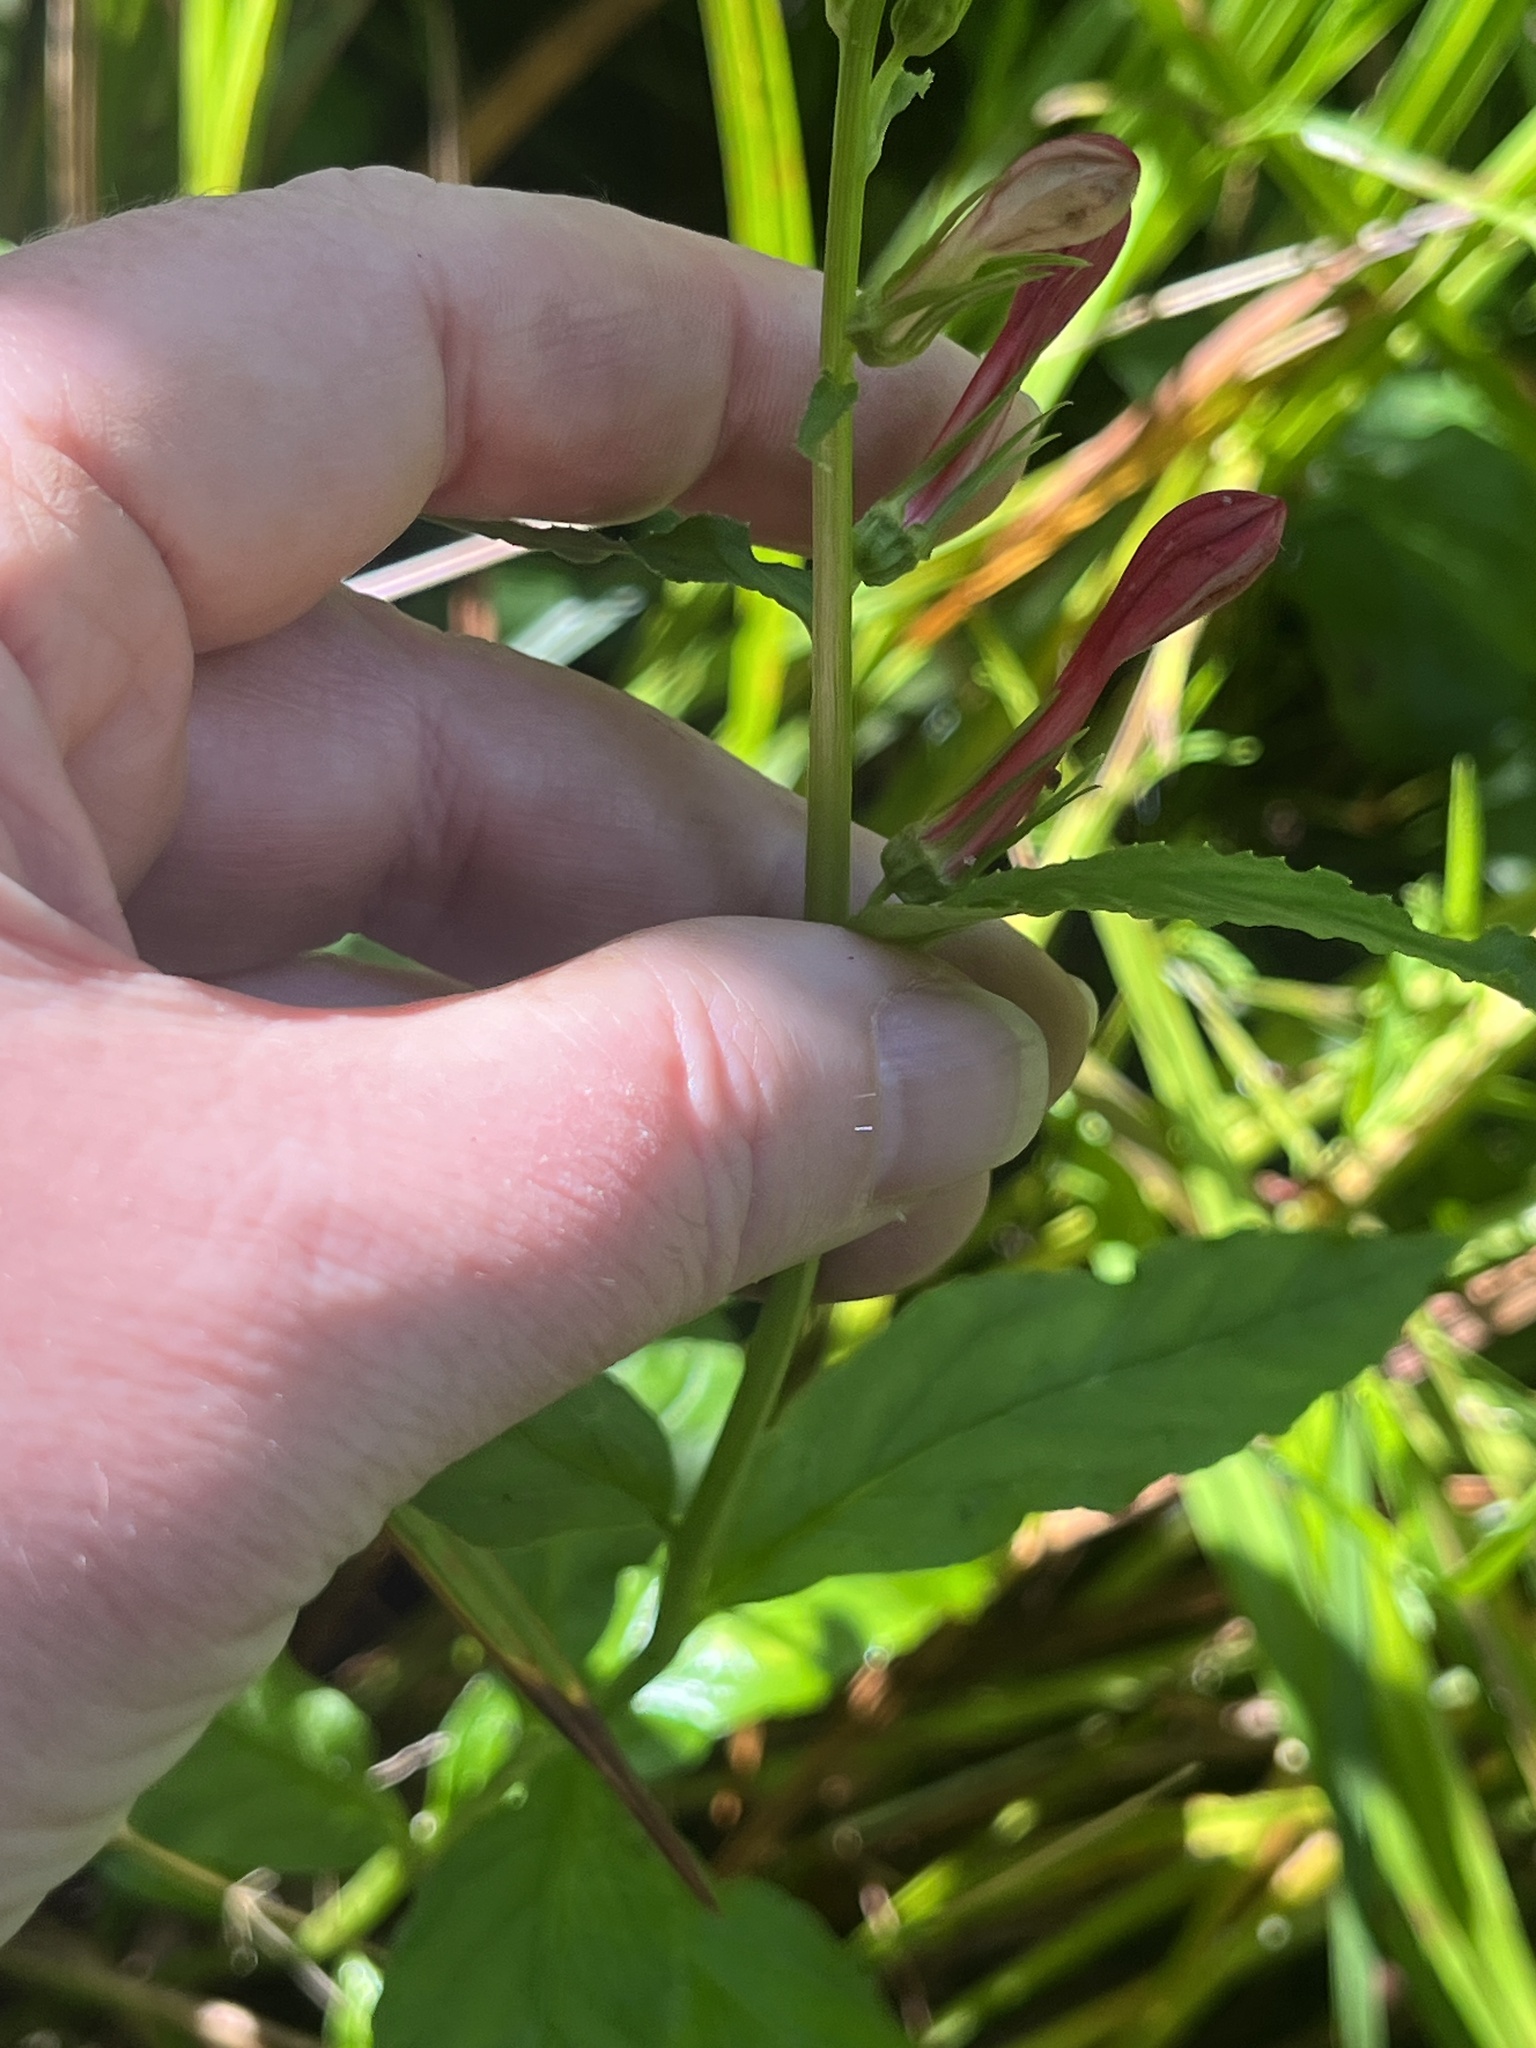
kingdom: Plantae
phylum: Tracheophyta
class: Magnoliopsida
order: Asterales
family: Campanulaceae
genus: Lobelia
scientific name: Lobelia cardinalis
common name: Cardinal flower
